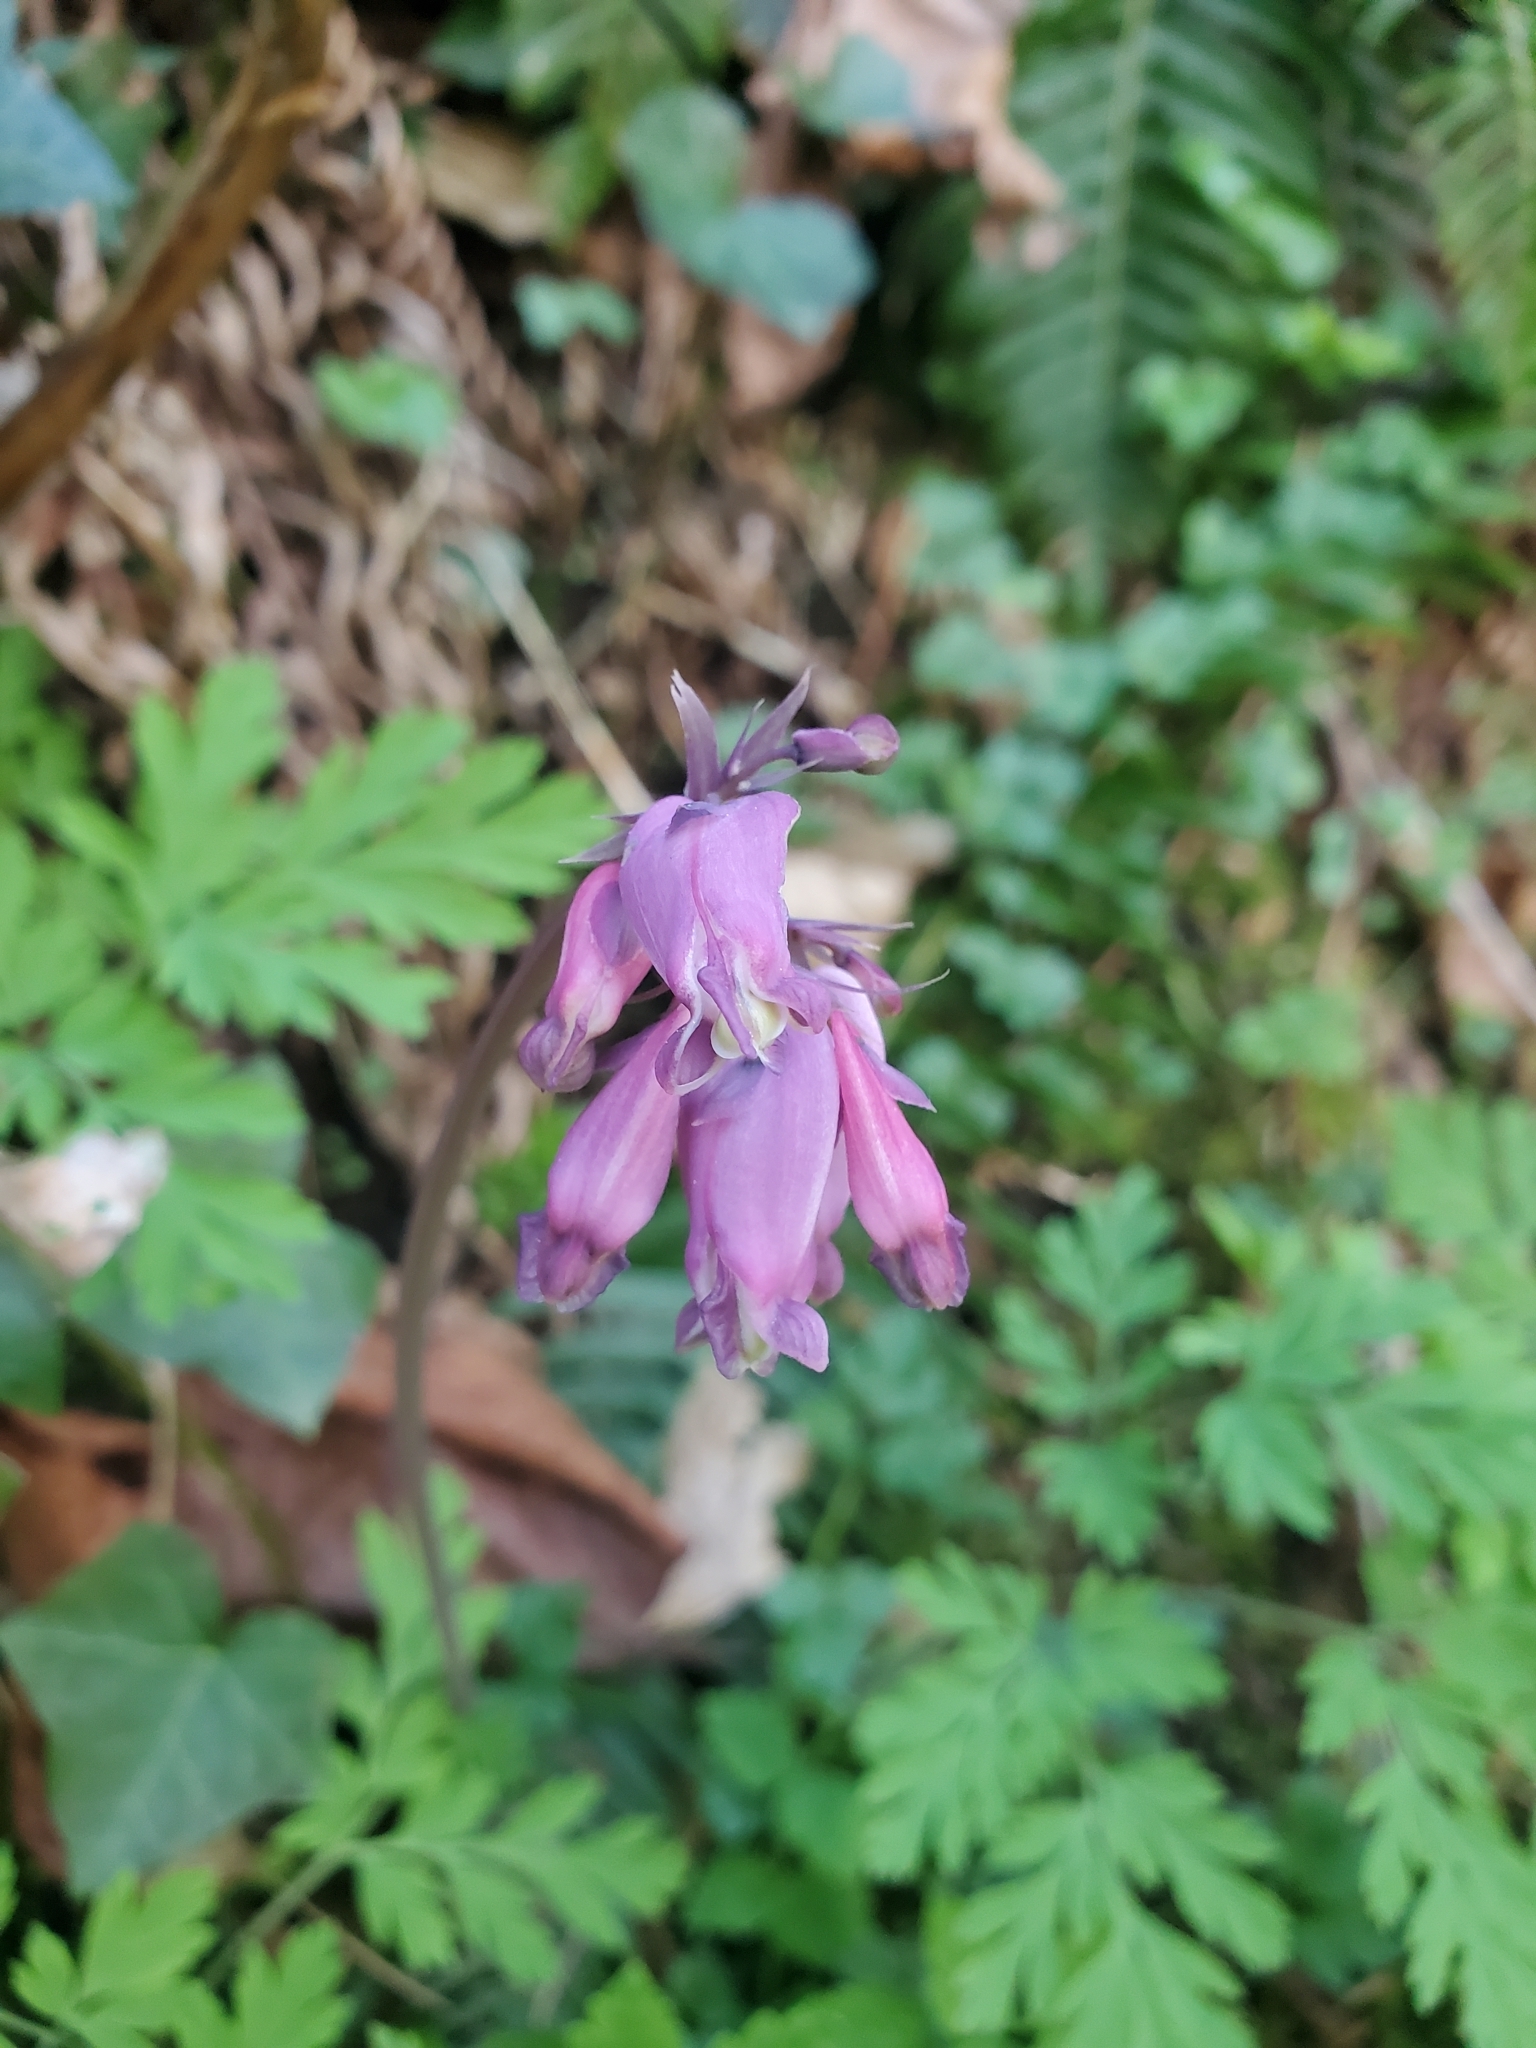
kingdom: Plantae
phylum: Tracheophyta
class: Magnoliopsida
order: Ranunculales
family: Papaveraceae
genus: Dicentra
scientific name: Dicentra formosa
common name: Bleeding-heart
